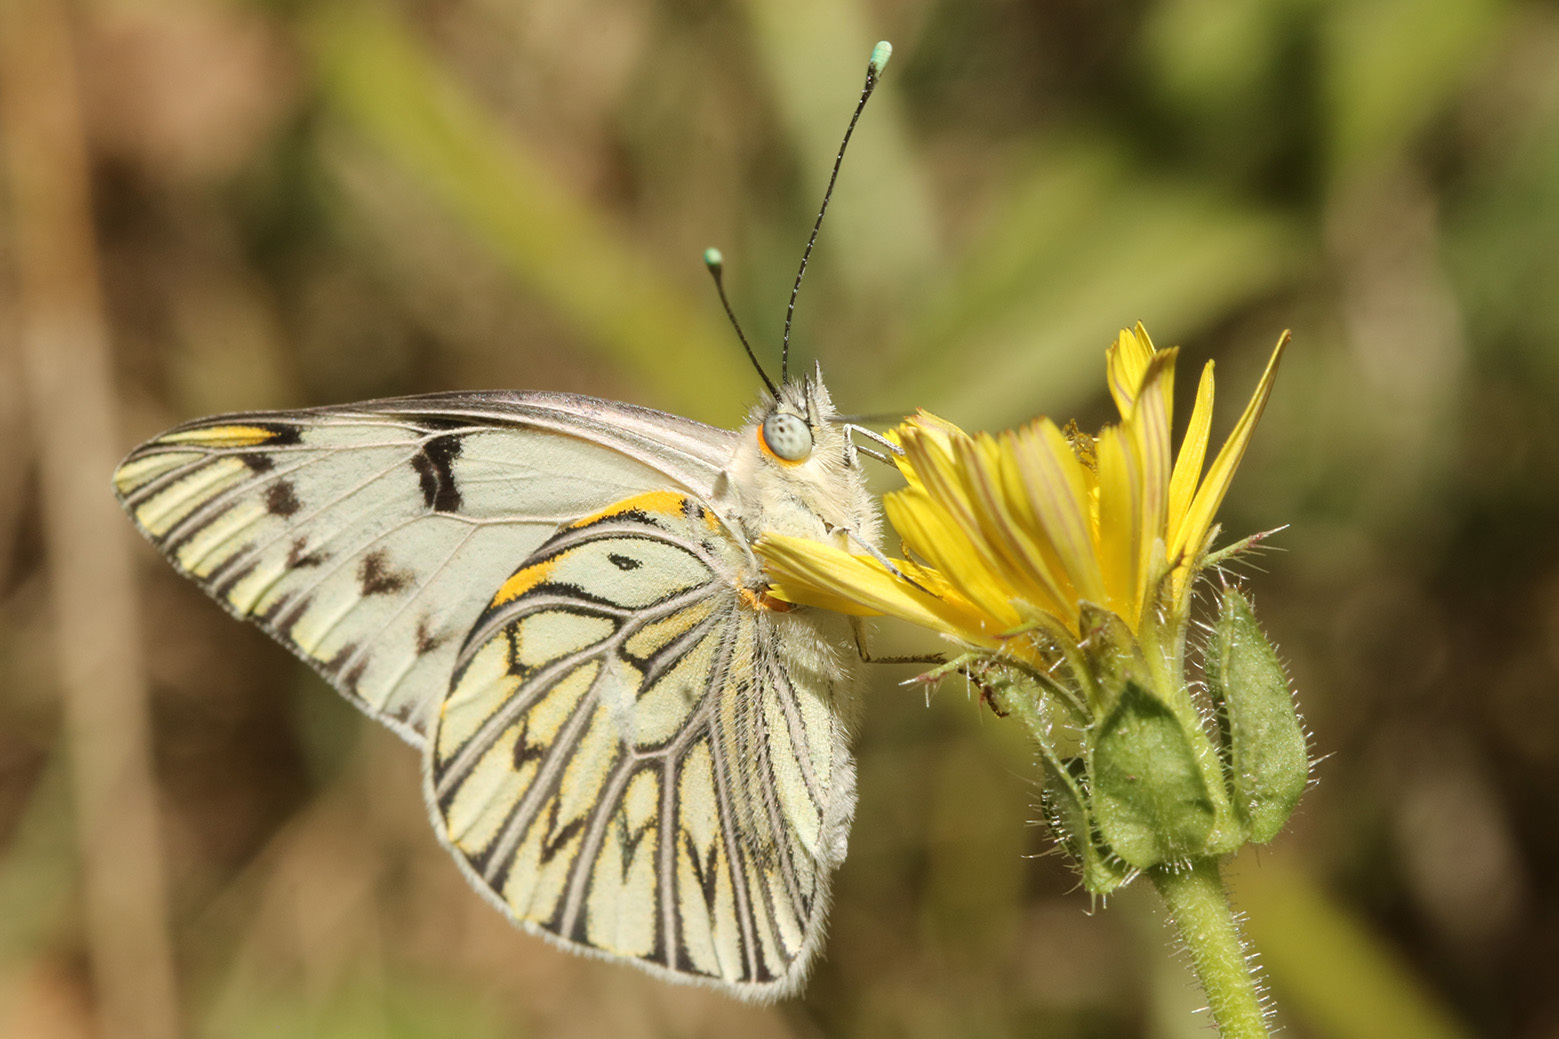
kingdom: Animalia
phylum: Arthropoda
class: Insecta
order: Lepidoptera
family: Pieridae
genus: Tatochila
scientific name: Tatochila autodice
